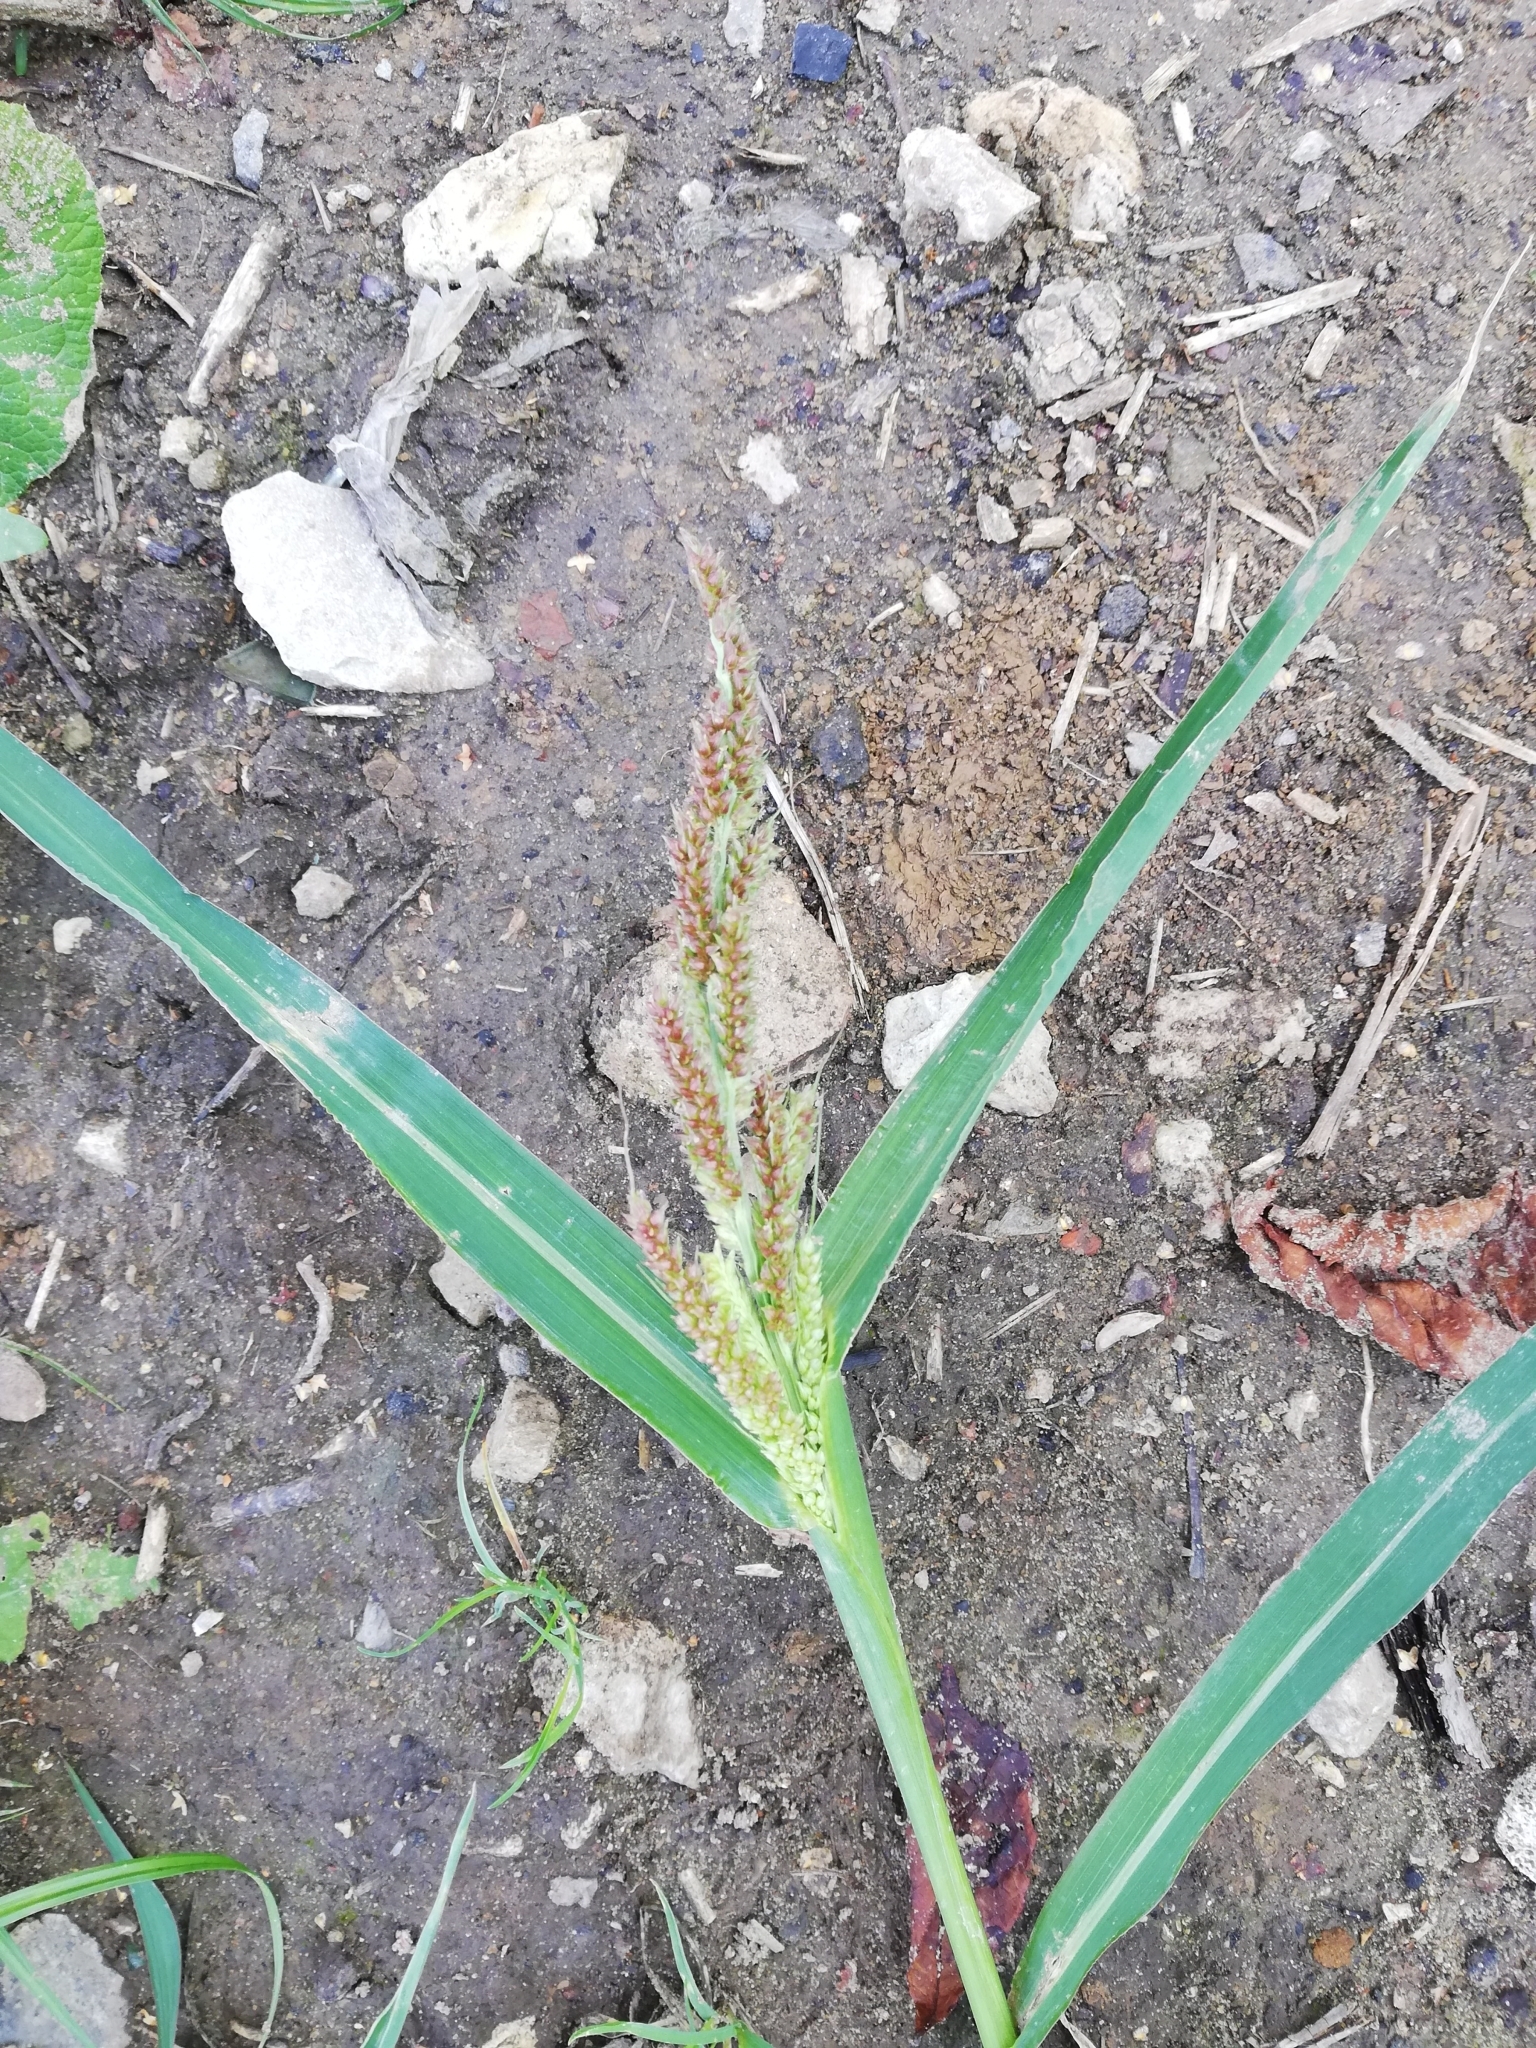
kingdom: Plantae
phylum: Tracheophyta
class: Liliopsida
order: Poales
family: Poaceae
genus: Echinochloa
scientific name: Echinochloa crus-galli
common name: Cockspur
